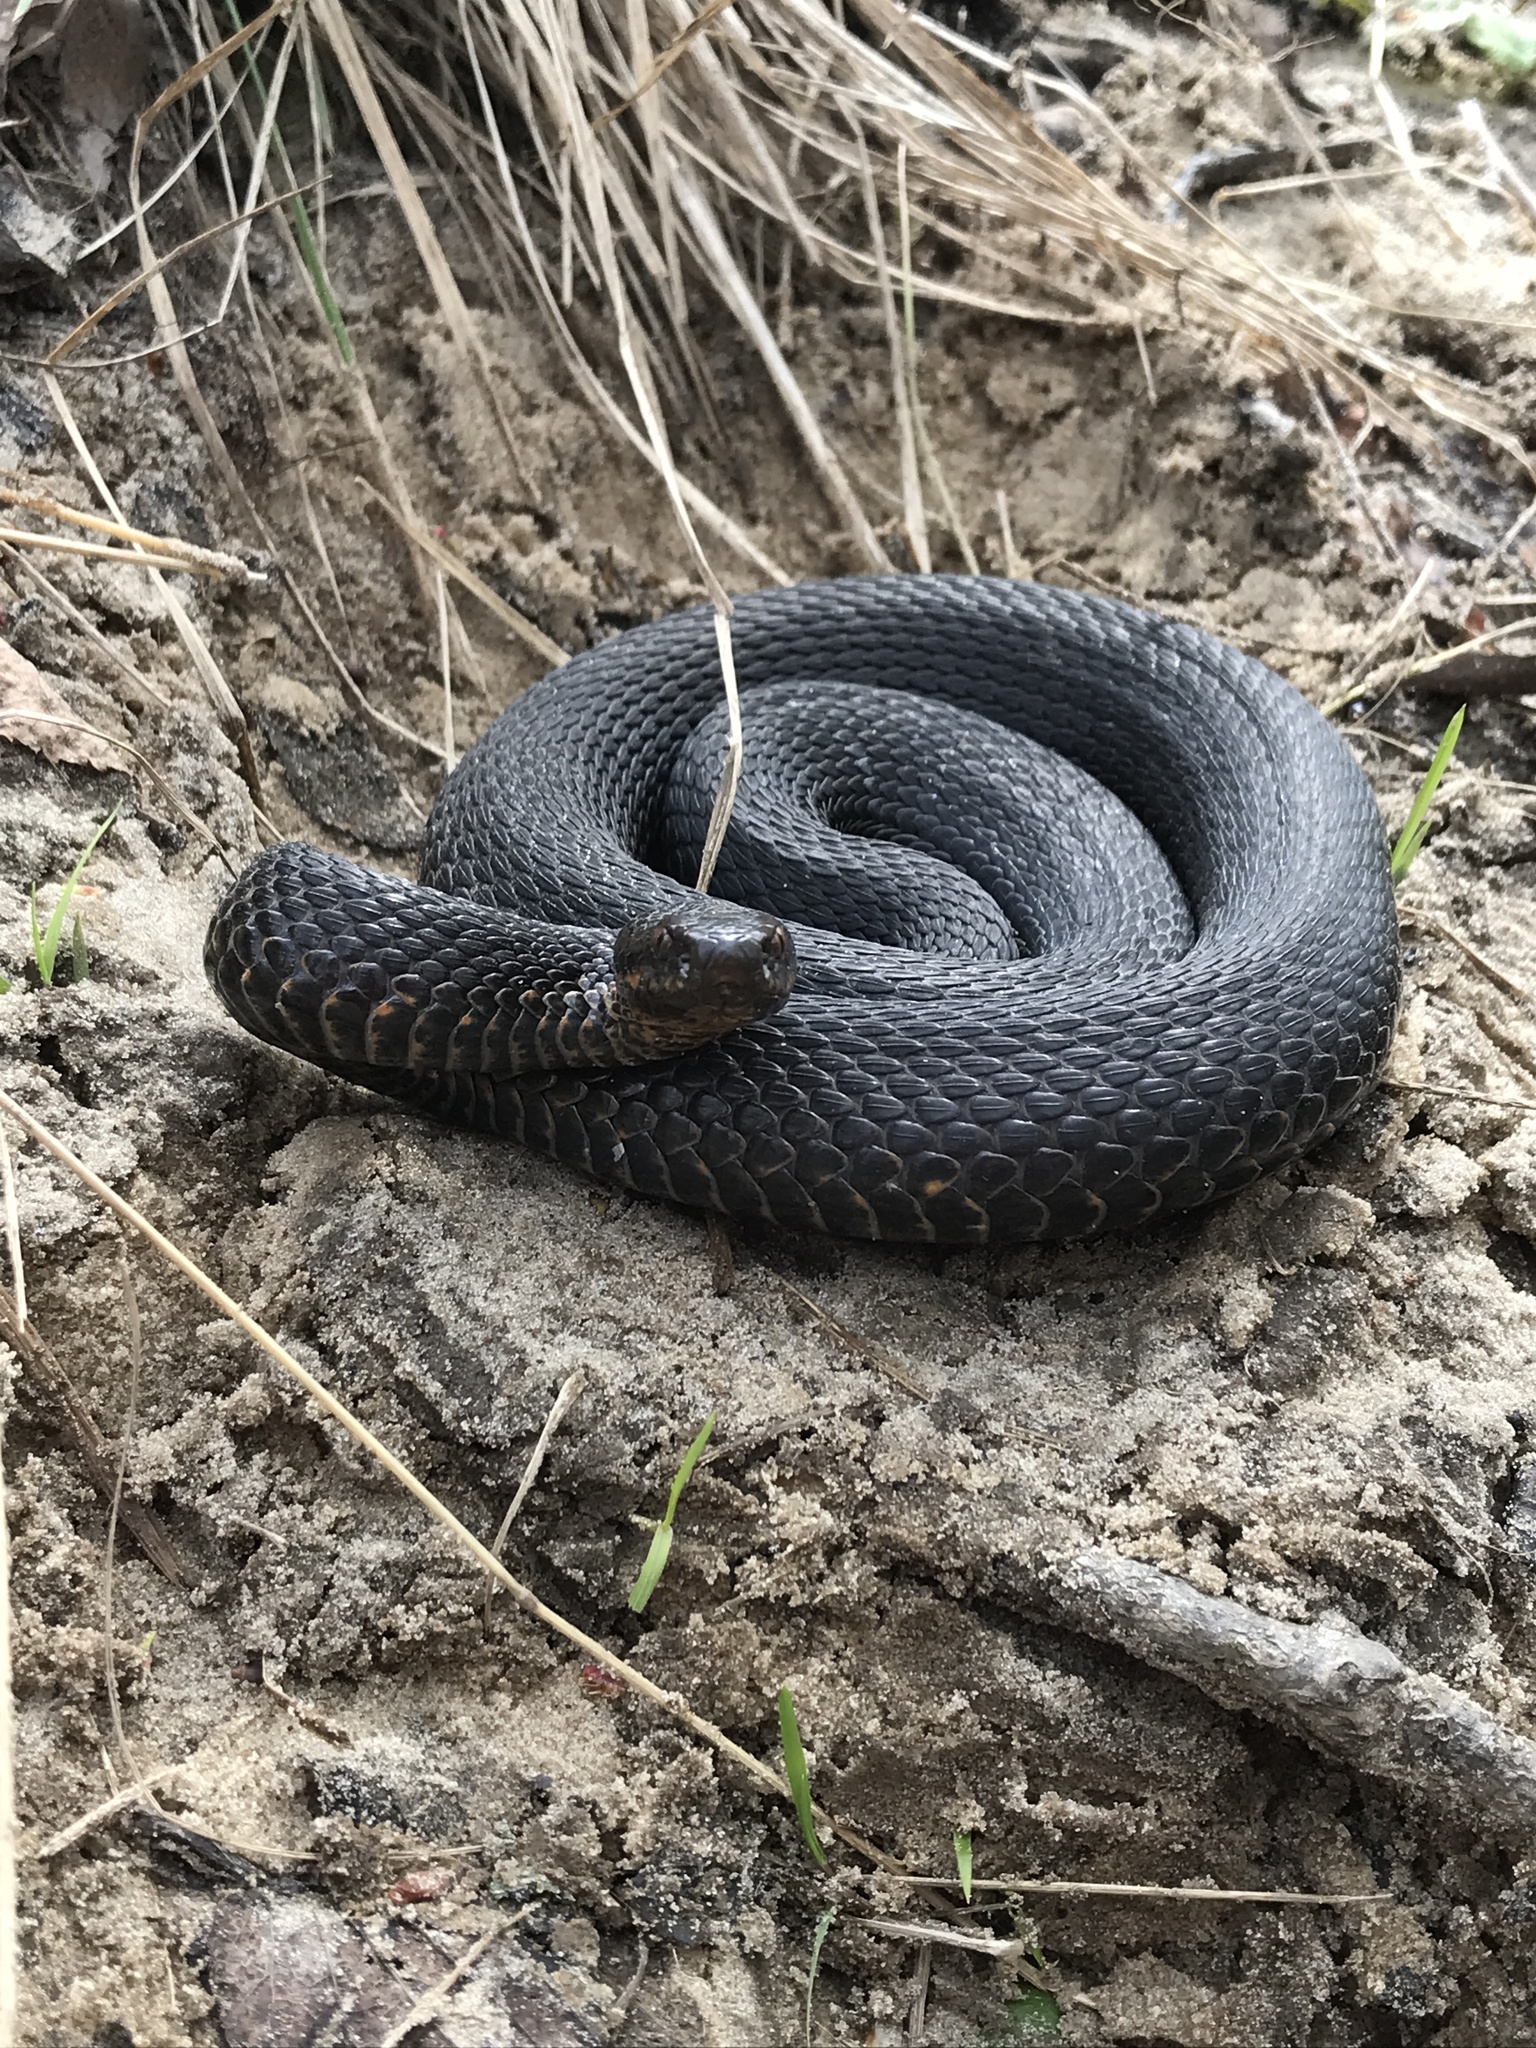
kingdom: Animalia
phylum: Chordata
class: Squamata
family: Viperidae
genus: Vipera
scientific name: Vipera berus
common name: Adder
